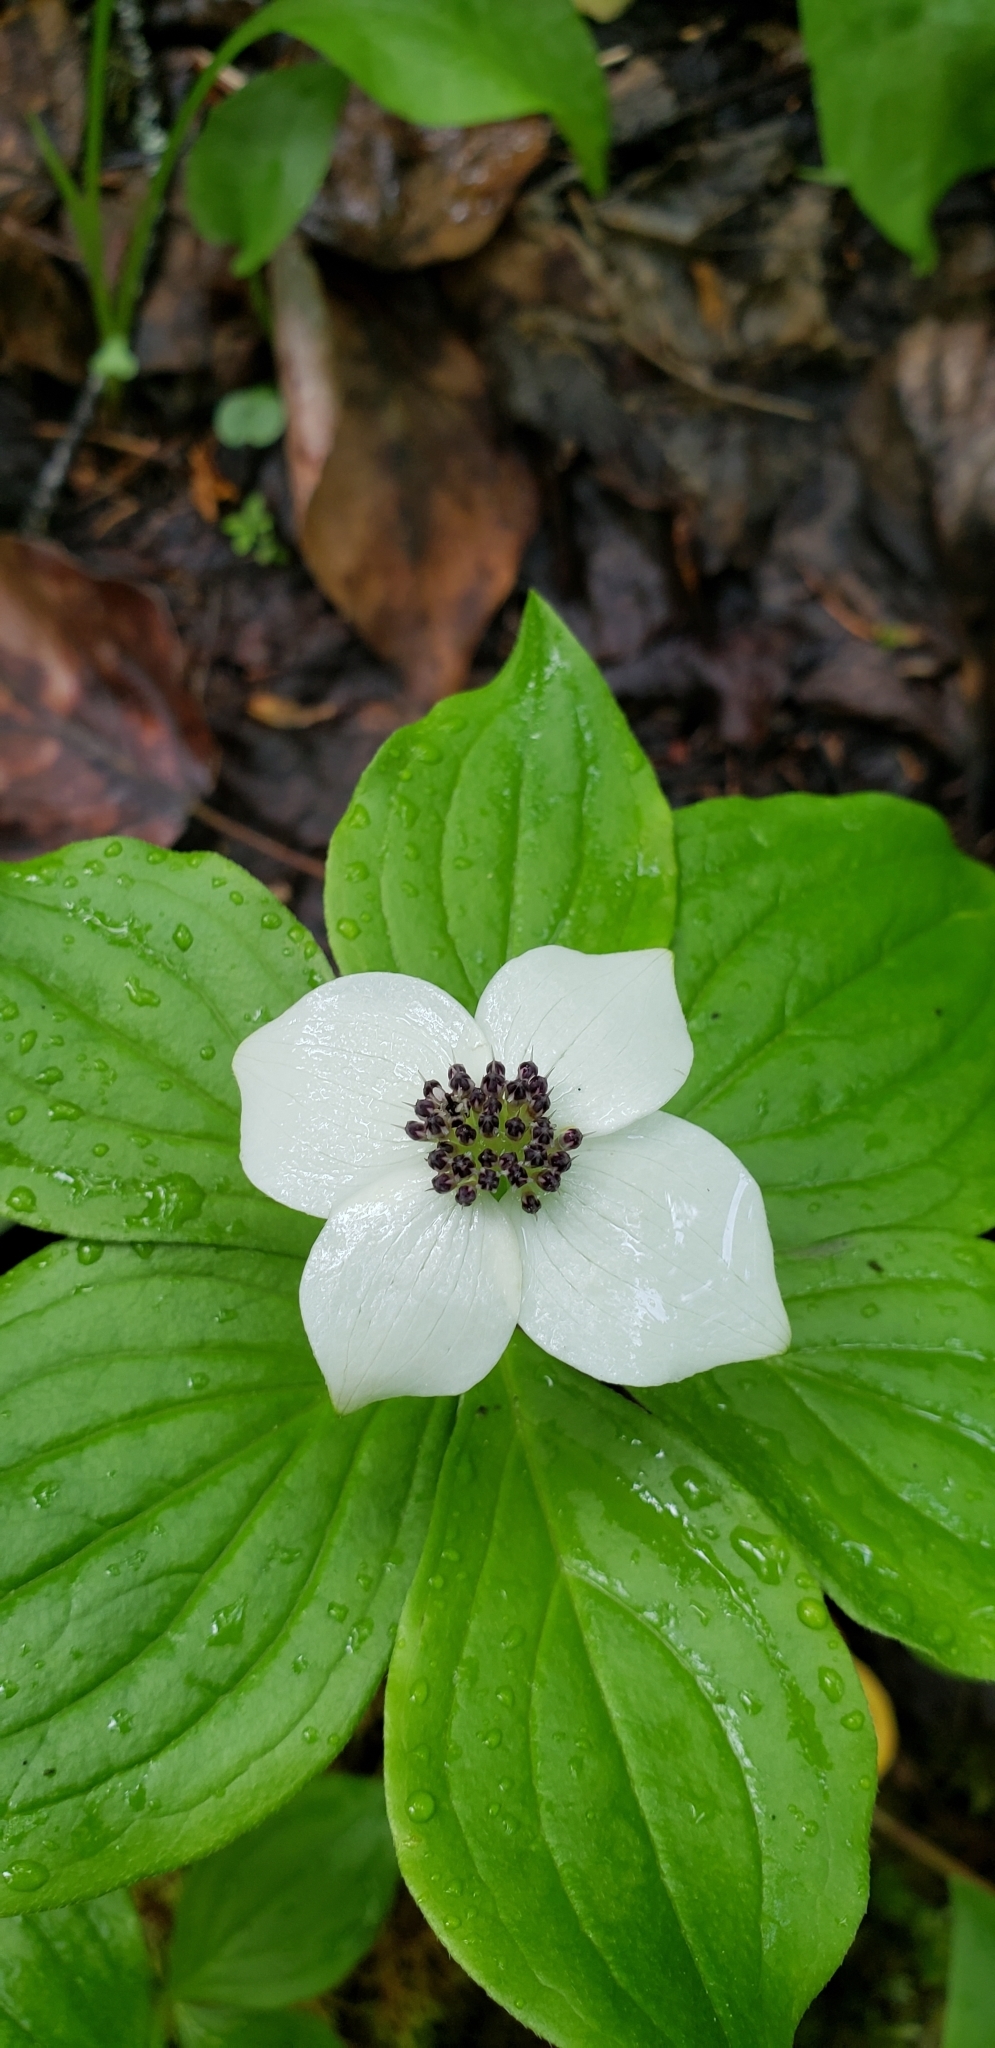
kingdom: Plantae
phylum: Tracheophyta
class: Magnoliopsida
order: Cornales
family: Cornaceae
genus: Cornus
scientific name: Cornus unalaschkensis
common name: Alaska bunchberry
